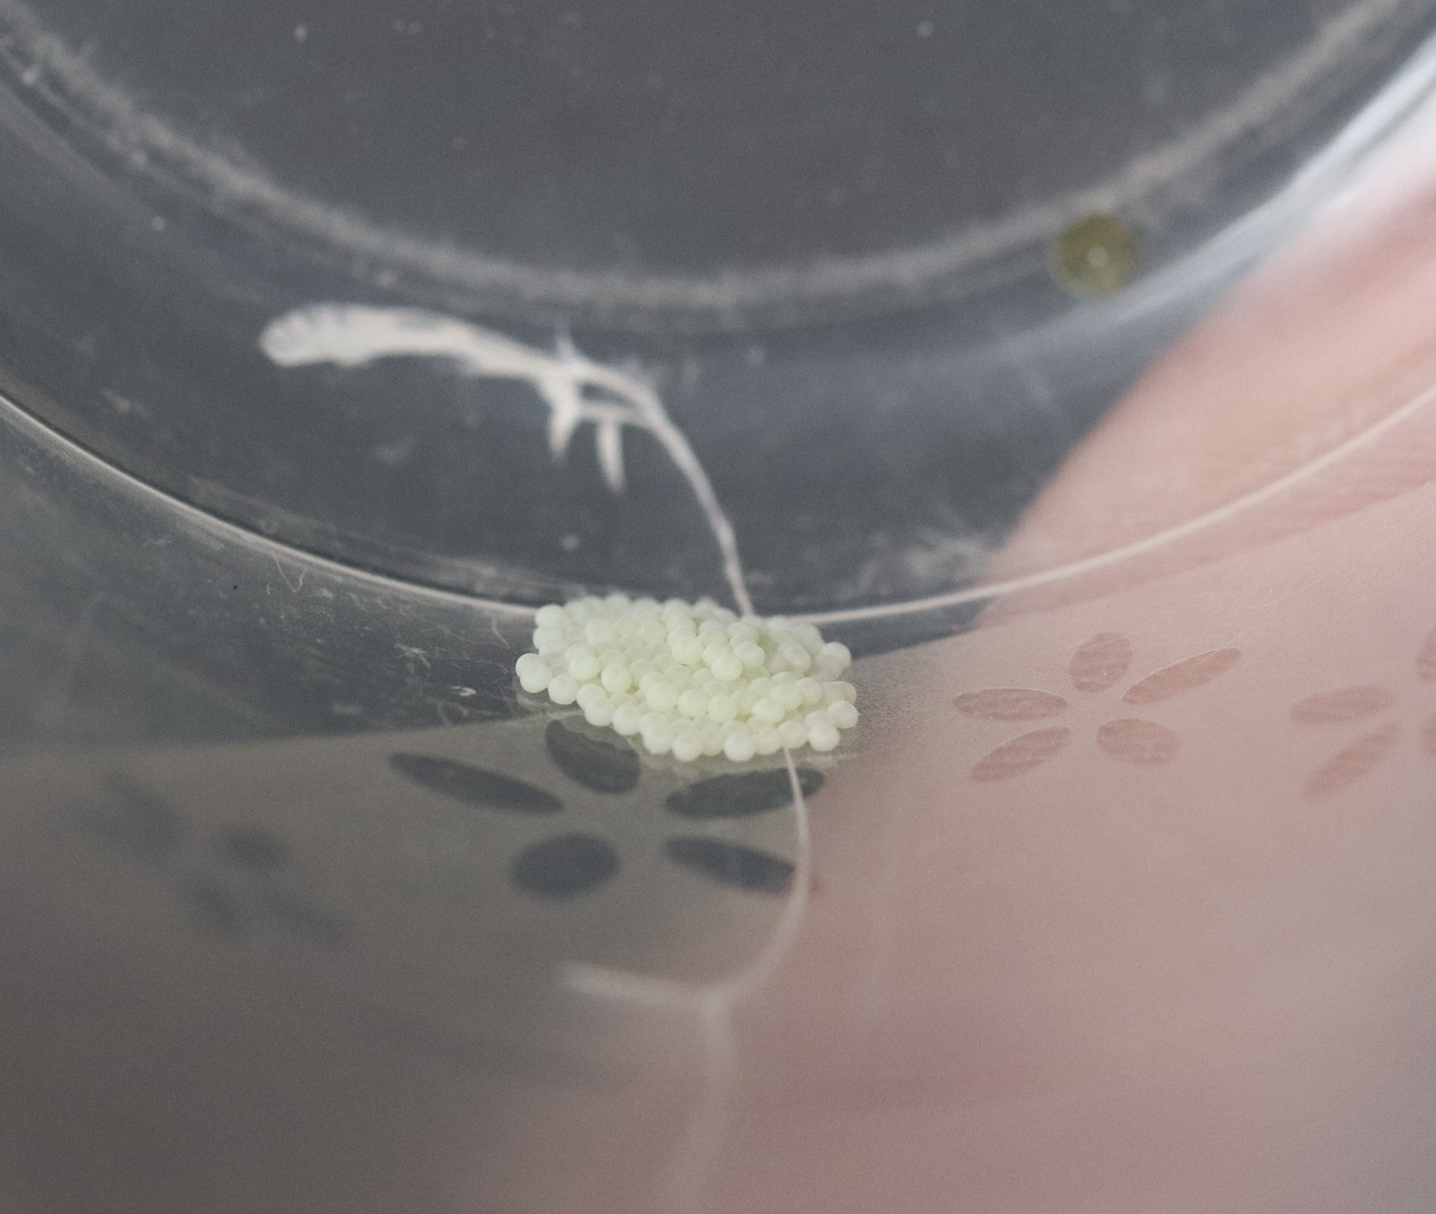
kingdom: Animalia
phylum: Arthropoda
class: Insecta
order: Lepidoptera
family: Noctuidae
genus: Orthosia
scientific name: Orthosia cerasi
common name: Common quaker
